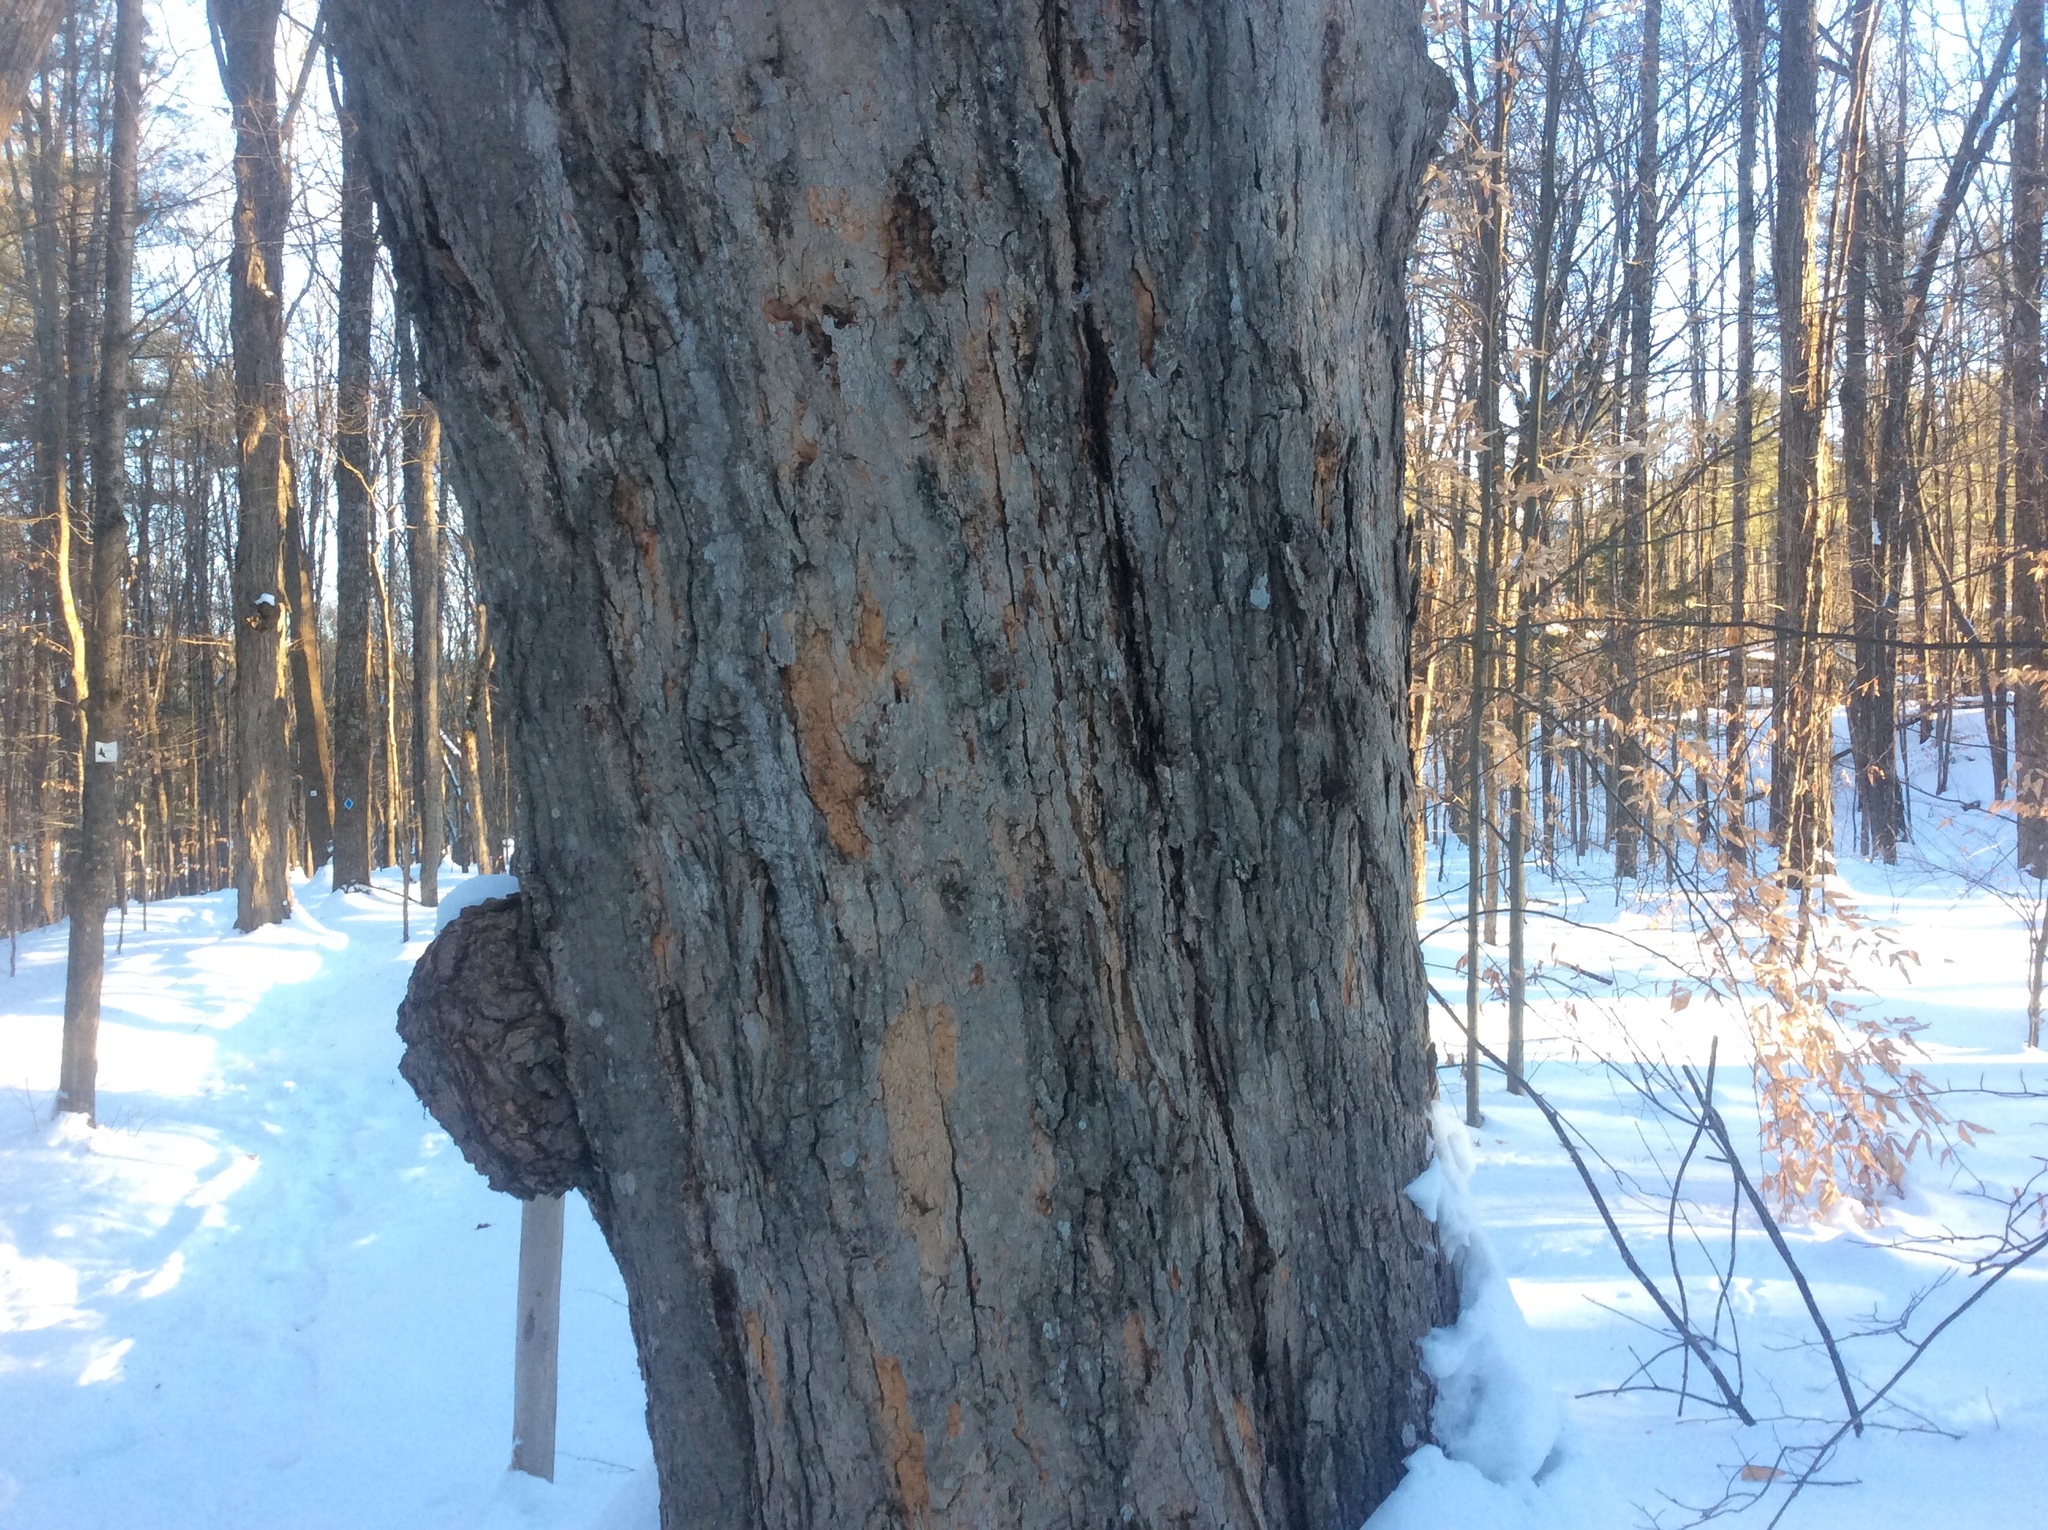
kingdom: Plantae
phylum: Tracheophyta
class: Magnoliopsida
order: Sapindales
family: Sapindaceae
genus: Acer
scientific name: Acer saccharum
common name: Sugar maple
